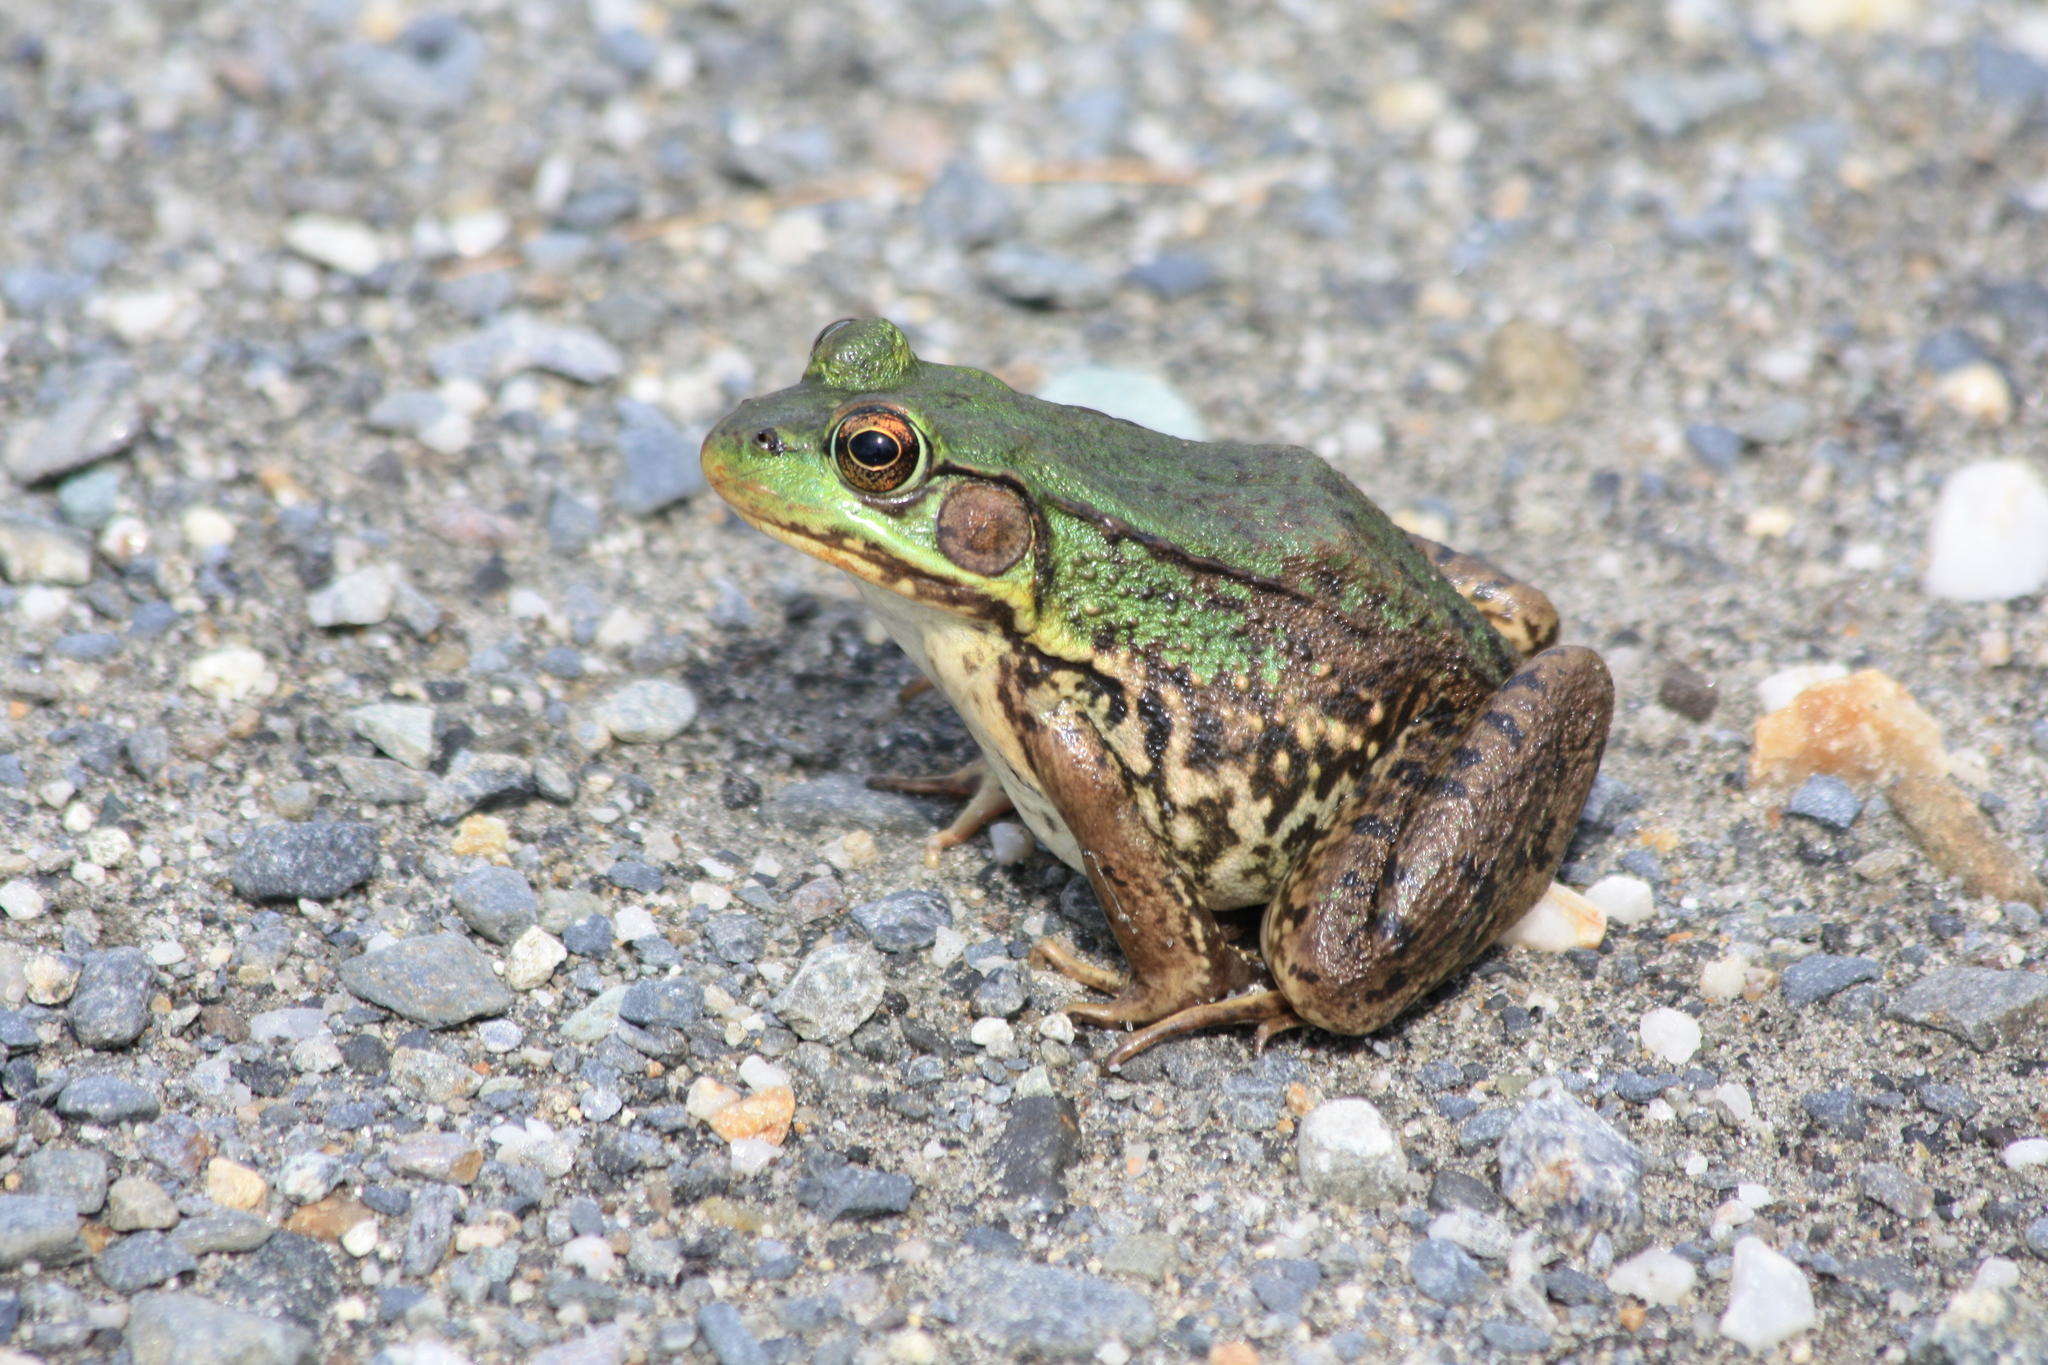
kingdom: Animalia
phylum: Chordata
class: Amphibia
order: Anura
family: Ranidae
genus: Lithobates
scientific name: Lithobates clamitans
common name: Green frog
